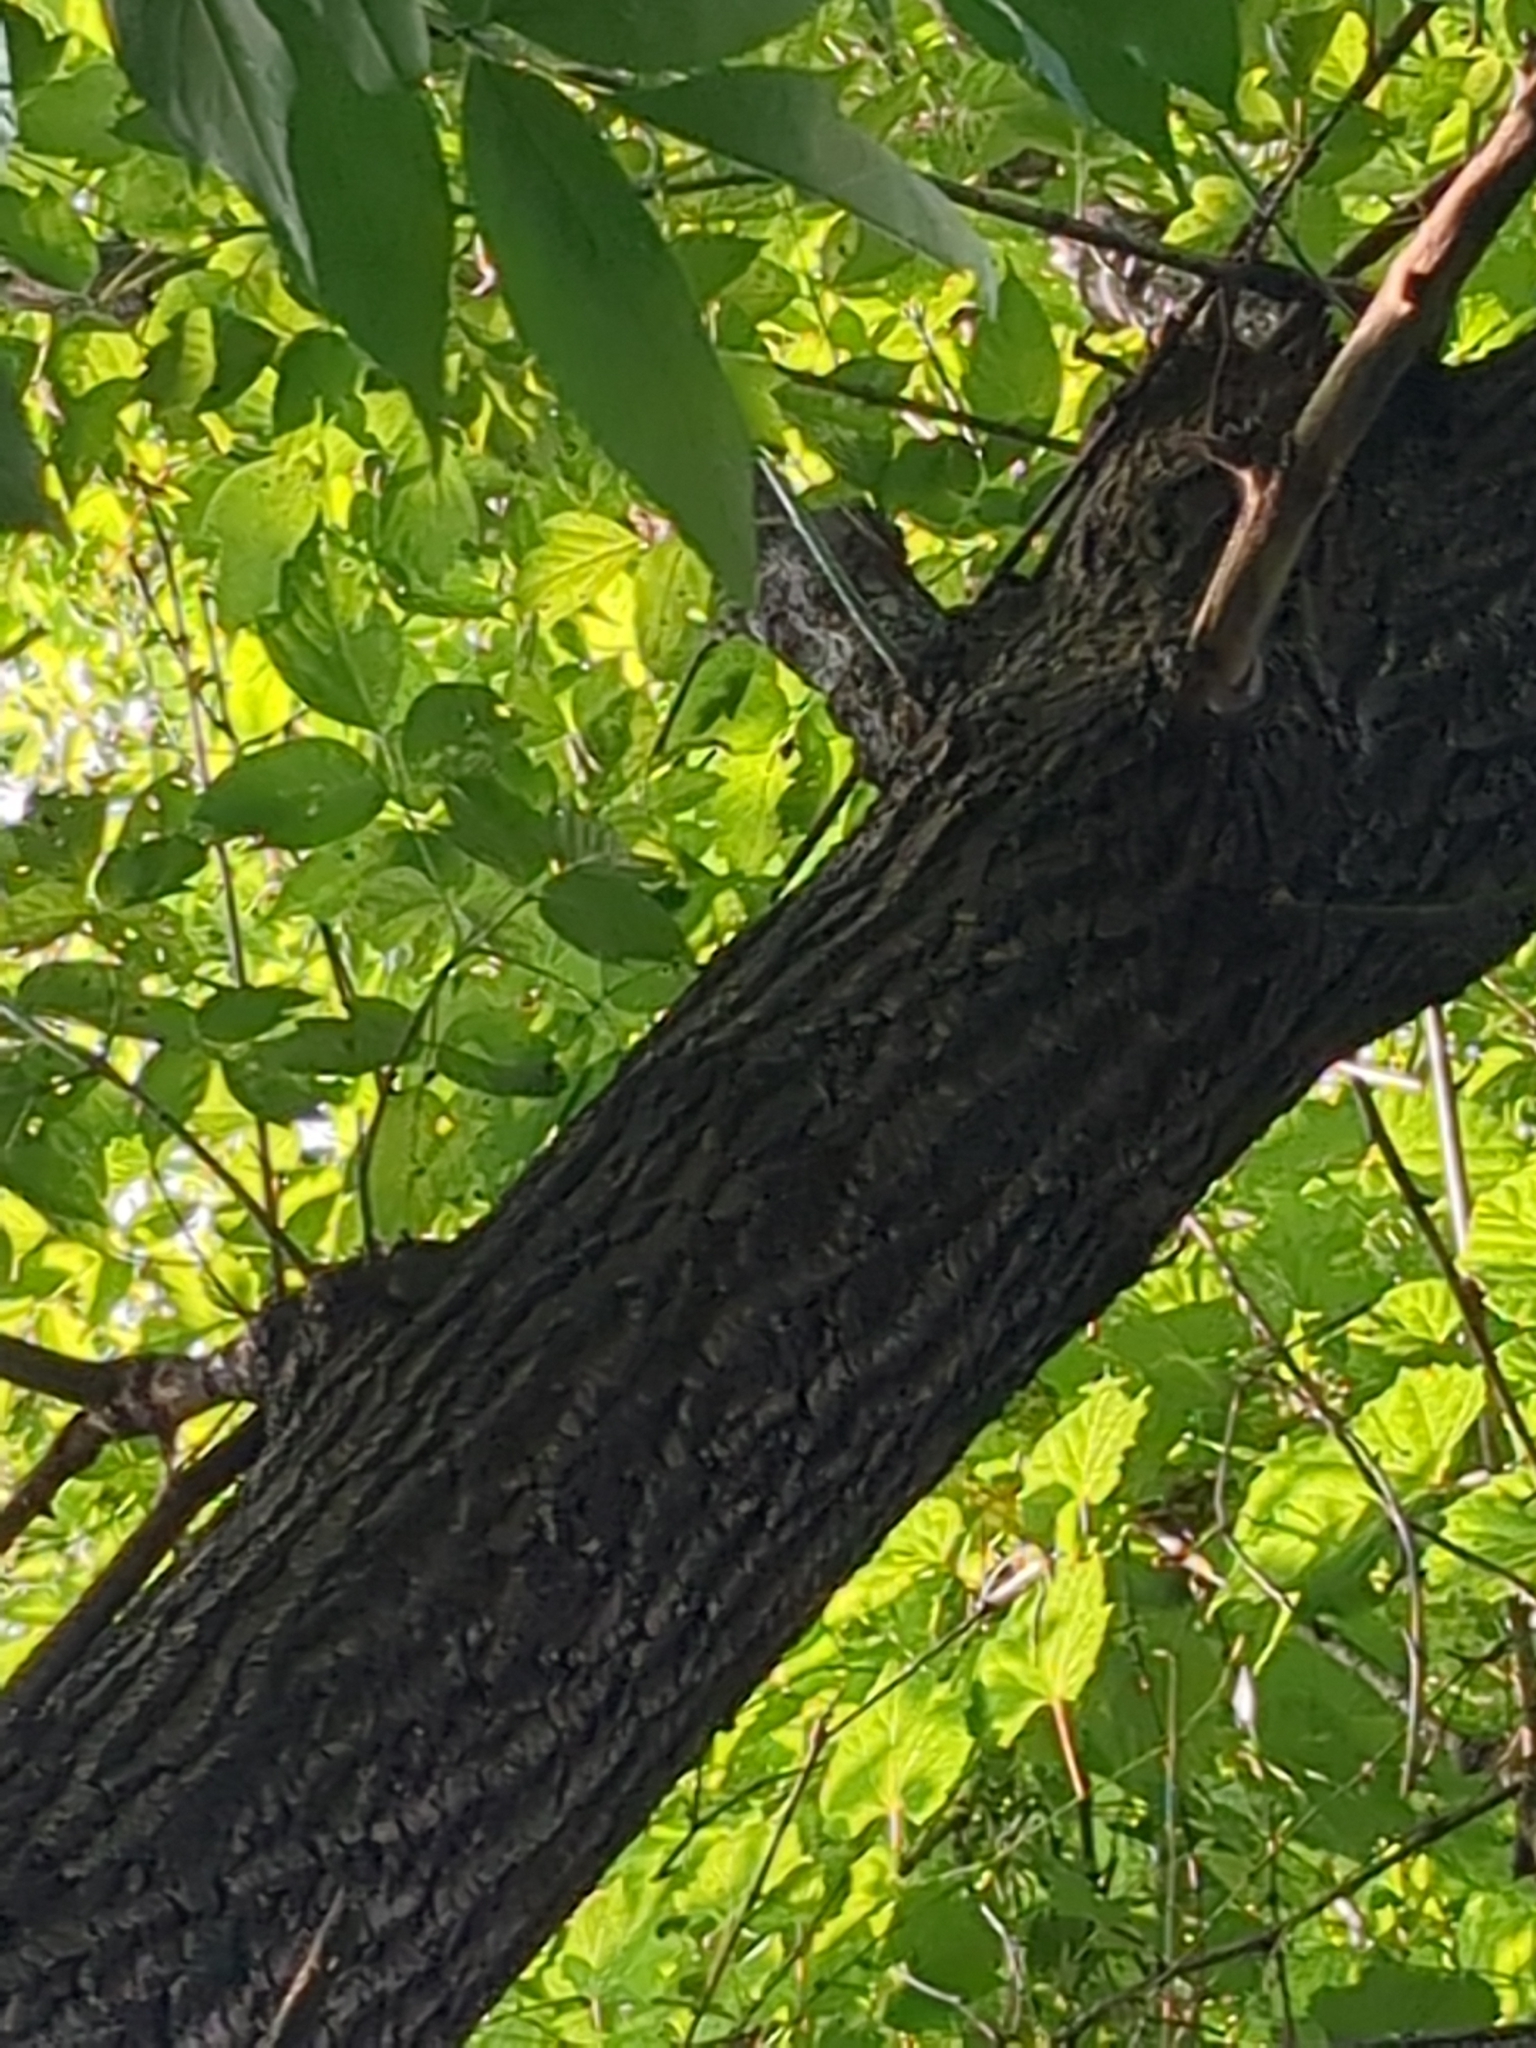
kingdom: Plantae
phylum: Tracheophyta
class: Magnoliopsida
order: Sapindales
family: Sapindaceae
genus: Acer
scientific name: Acer negundo
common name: Ashleaf maple
